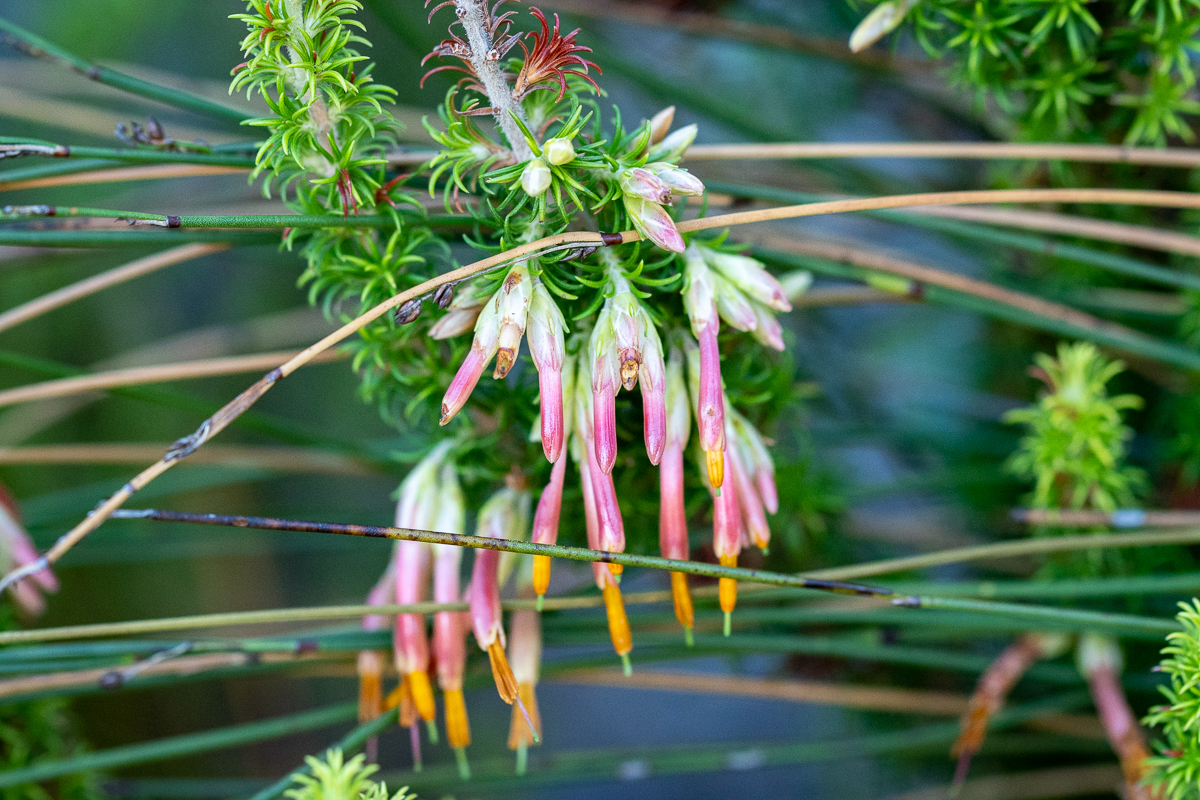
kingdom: Plantae
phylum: Tracheophyta
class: Magnoliopsida
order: Ericales
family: Ericaceae
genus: Erica
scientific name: Erica coccinea
